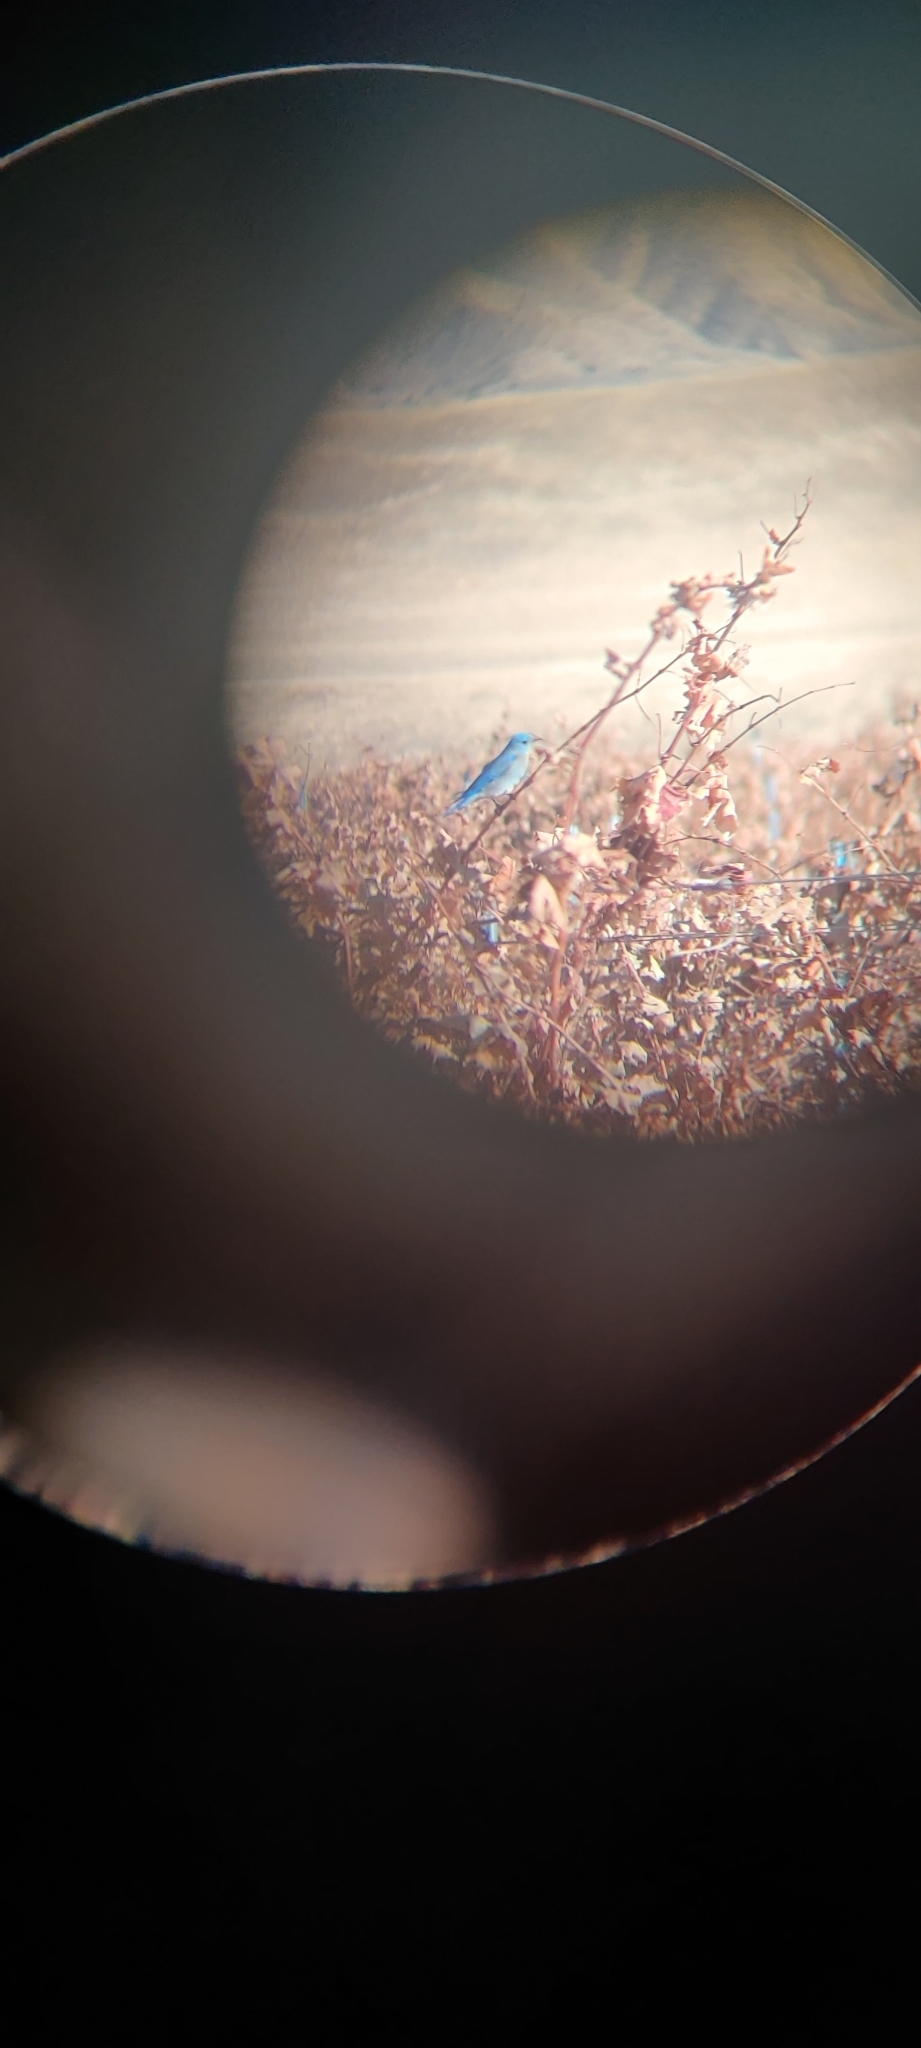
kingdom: Animalia
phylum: Chordata
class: Aves
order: Passeriformes
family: Turdidae
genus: Sialia
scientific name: Sialia currucoides
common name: Mountain bluebird
